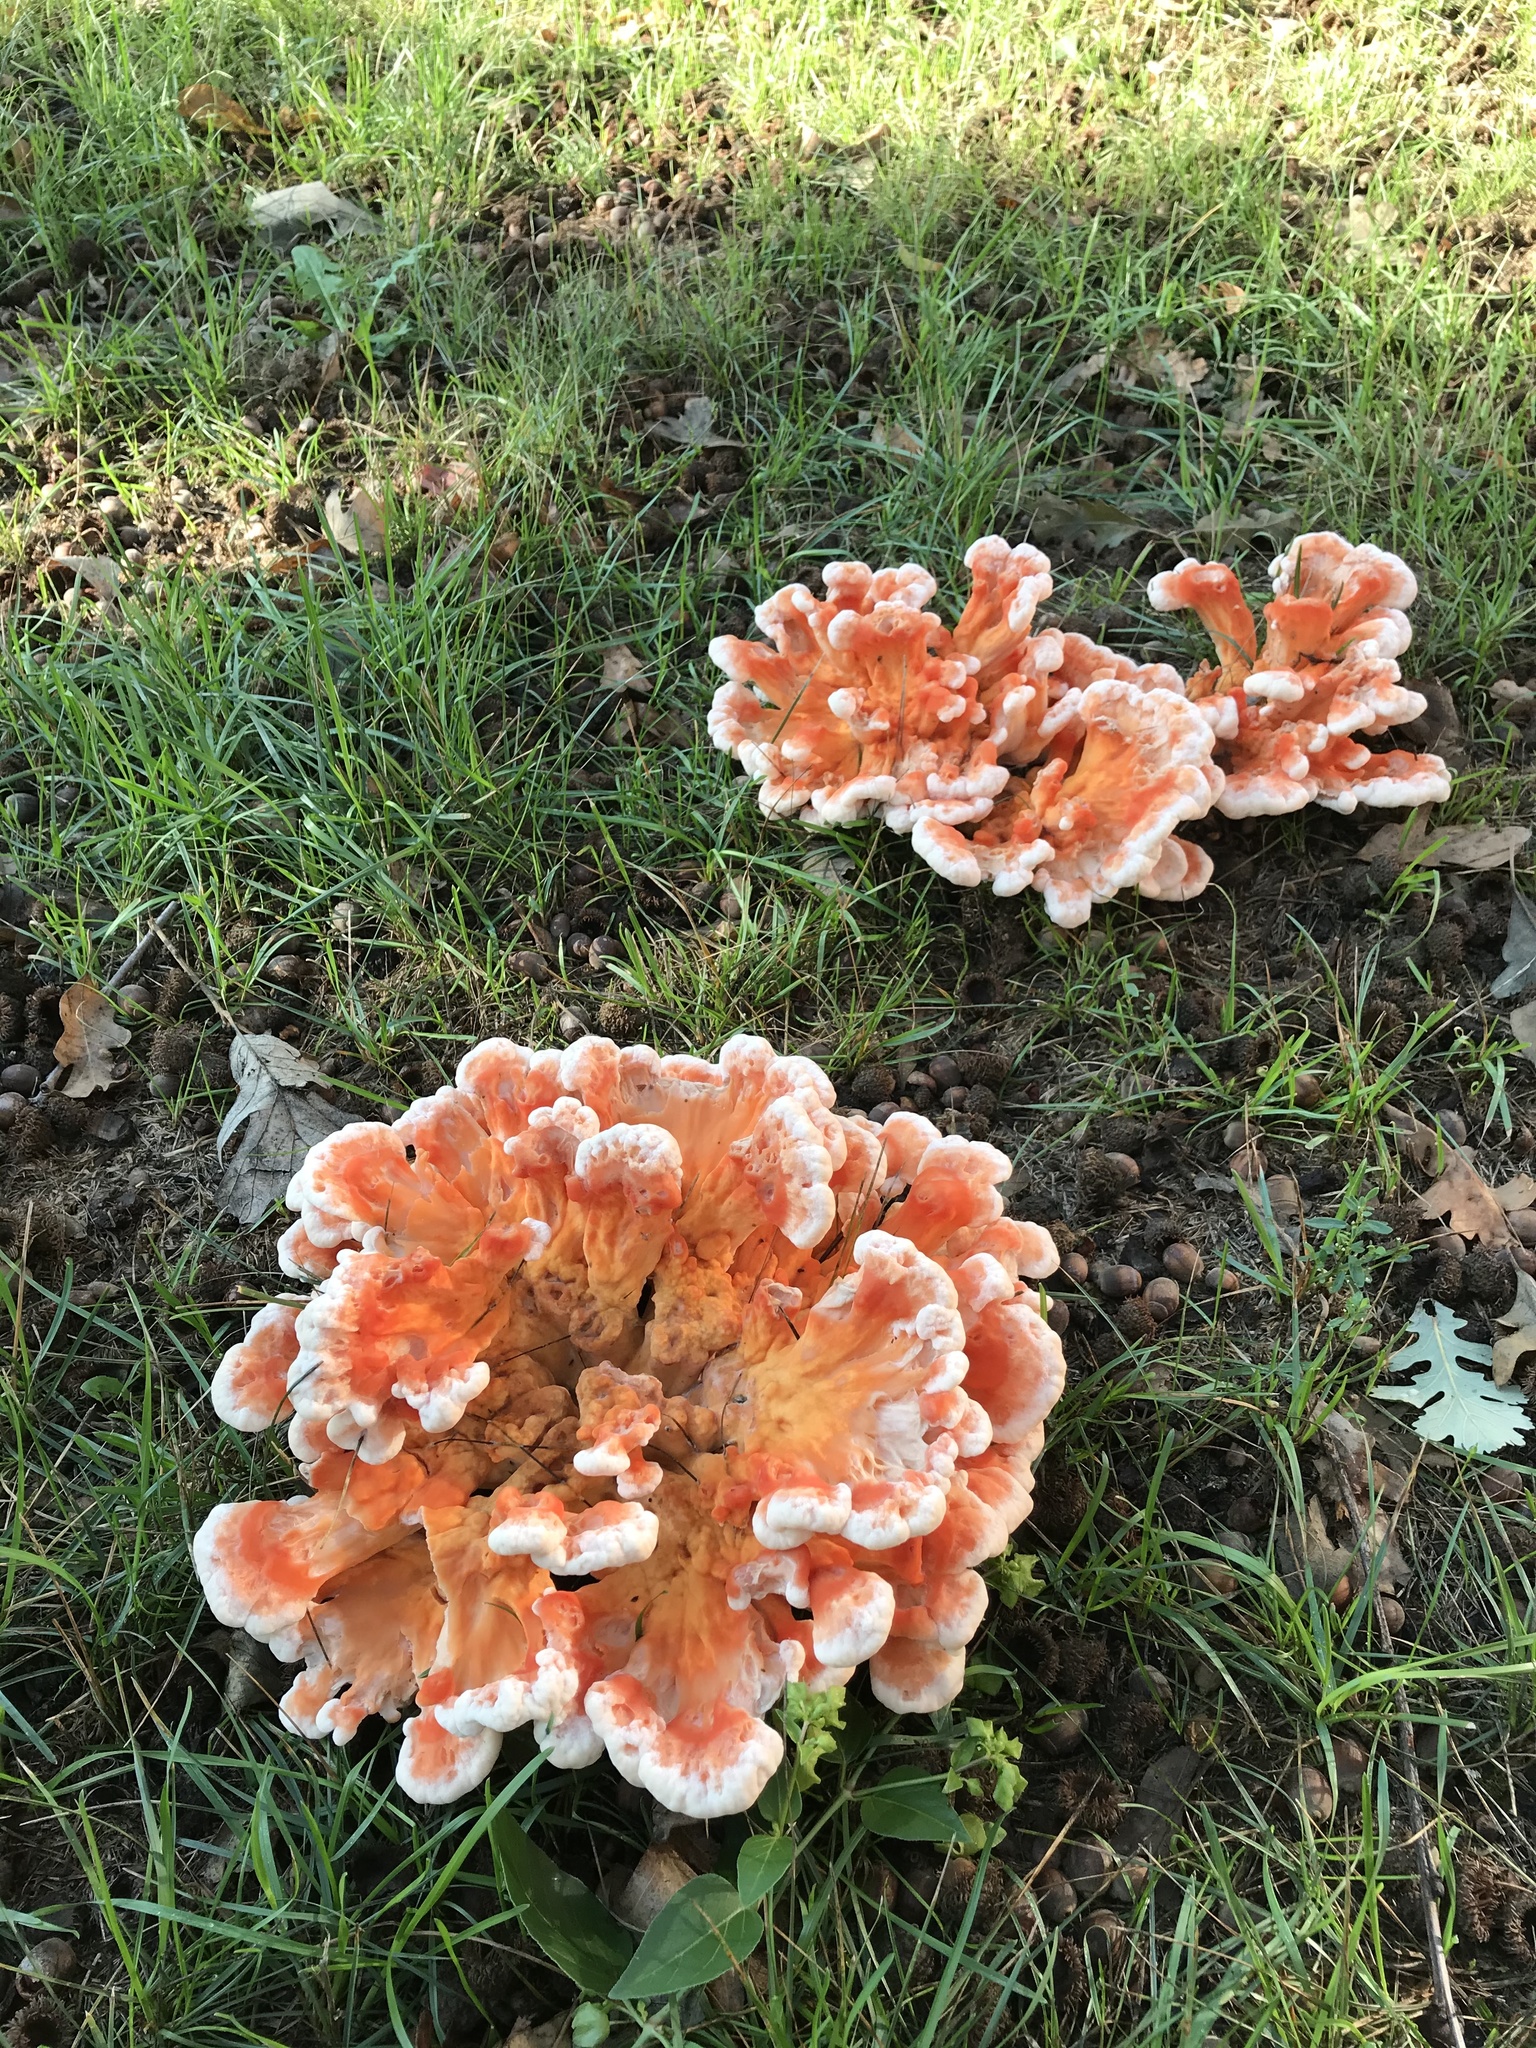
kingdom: Fungi
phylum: Basidiomycota
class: Agaricomycetes
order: Polyporales
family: Laetiporaceae
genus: Laetiporus
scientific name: Laetiporus sulphureus
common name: Chicken of the woods
